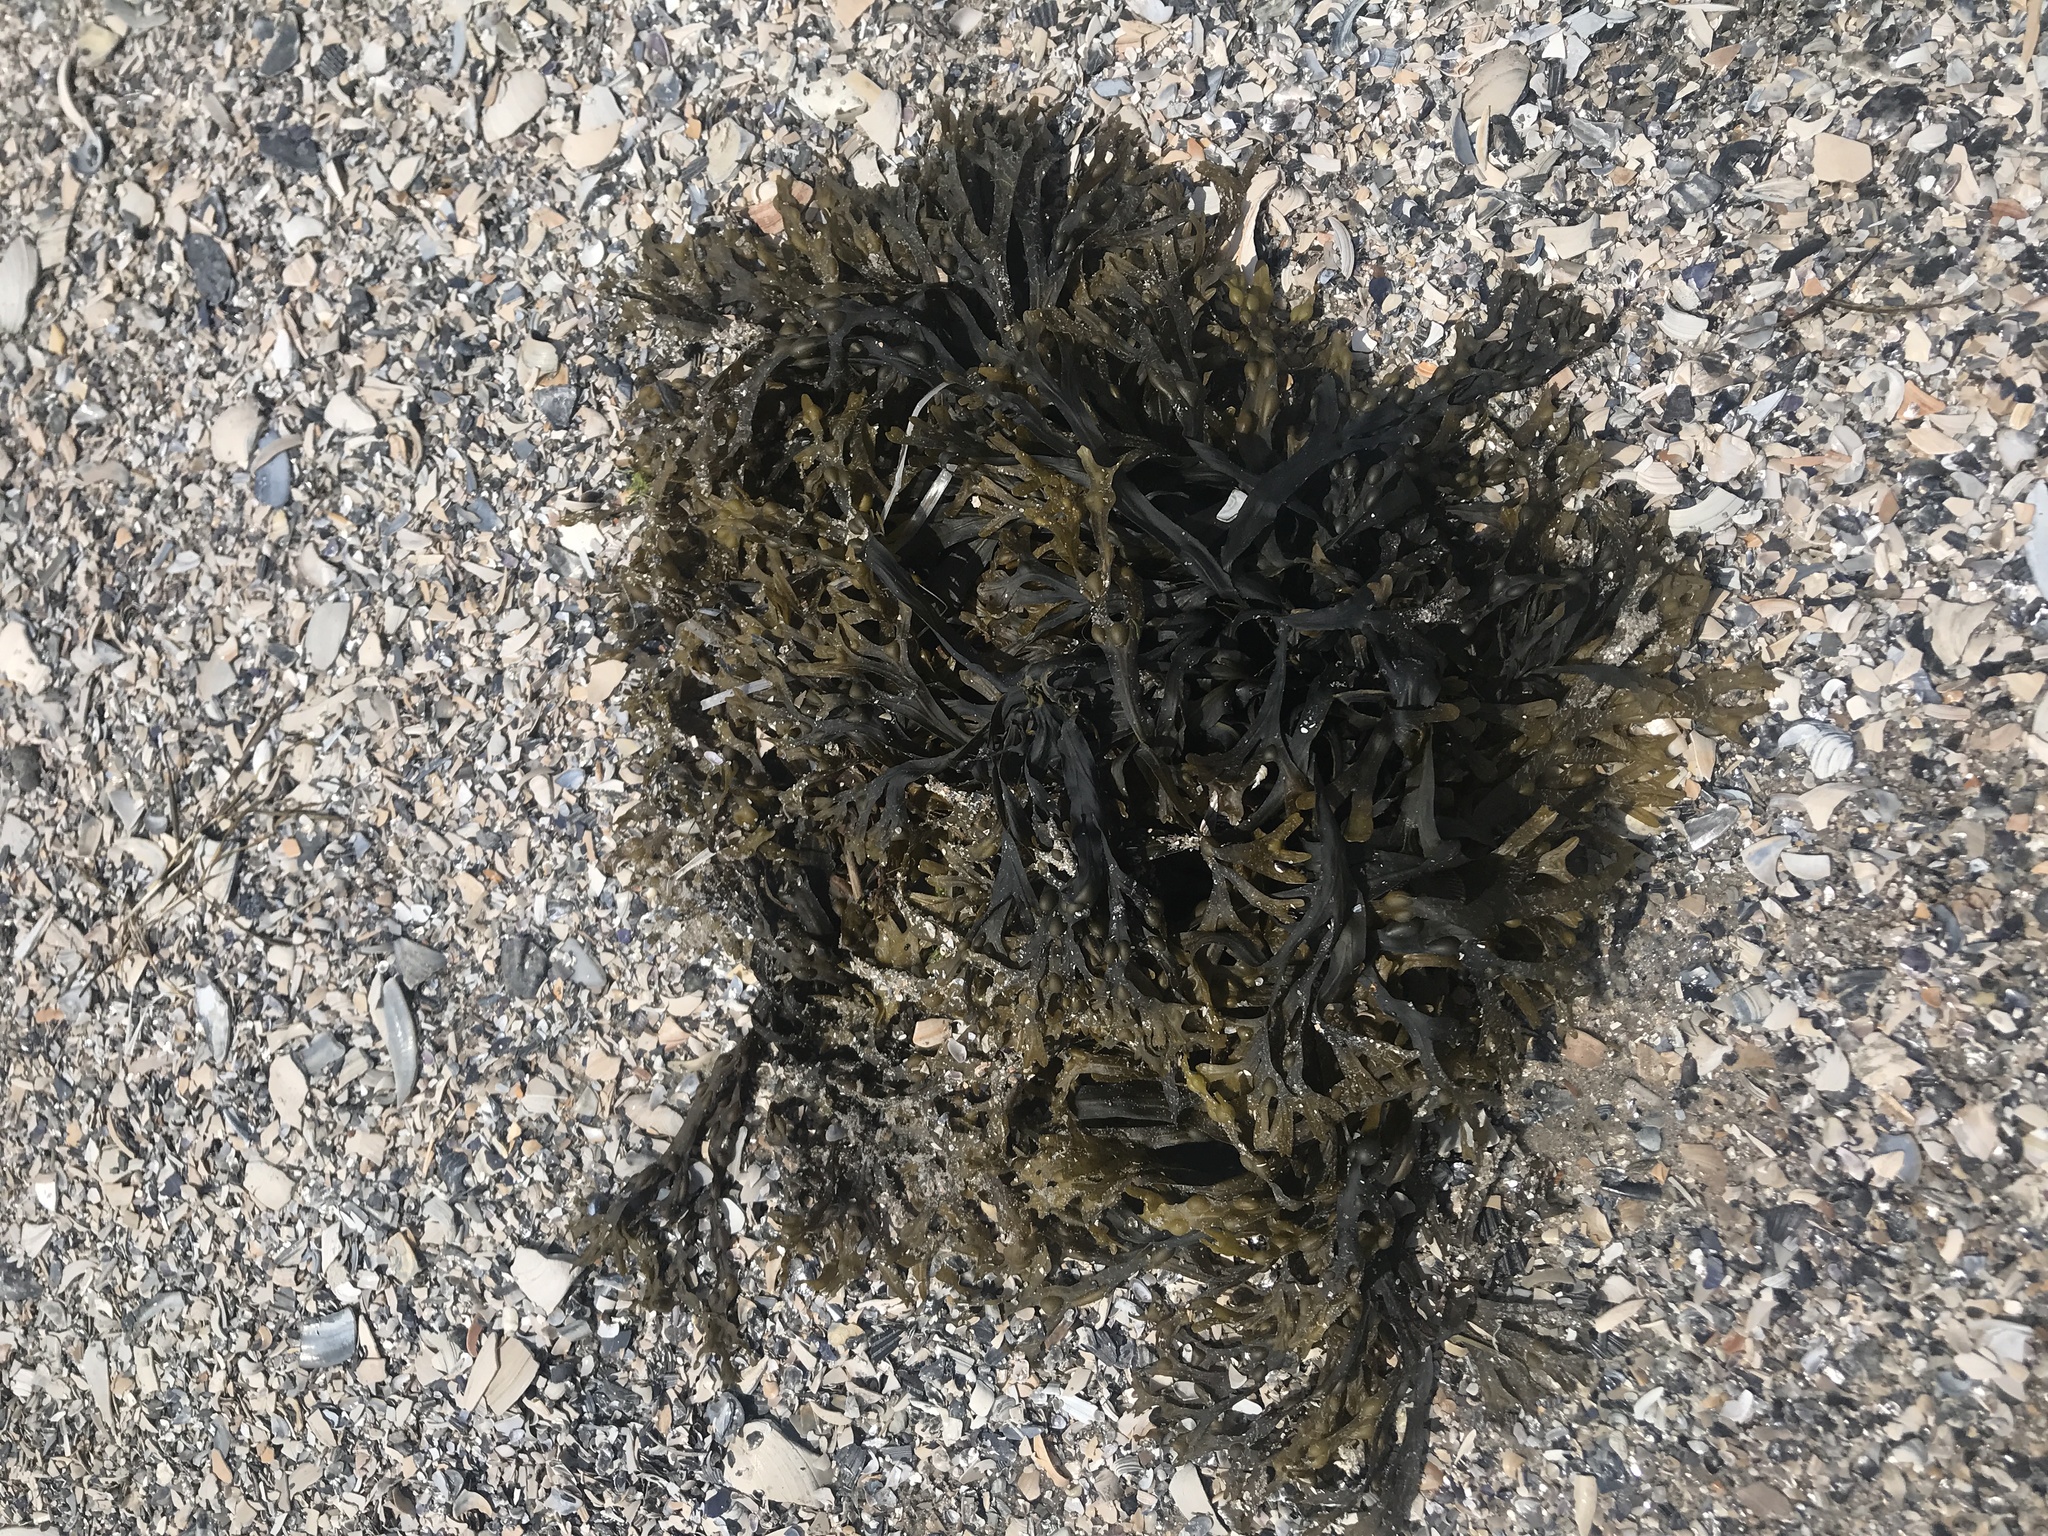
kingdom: Chromista
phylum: Ochrophyta
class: Phaeophyceae
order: Fucales
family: Fucaceae
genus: Fucus
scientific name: Fucus vesiculosus
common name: Bladder wrack
